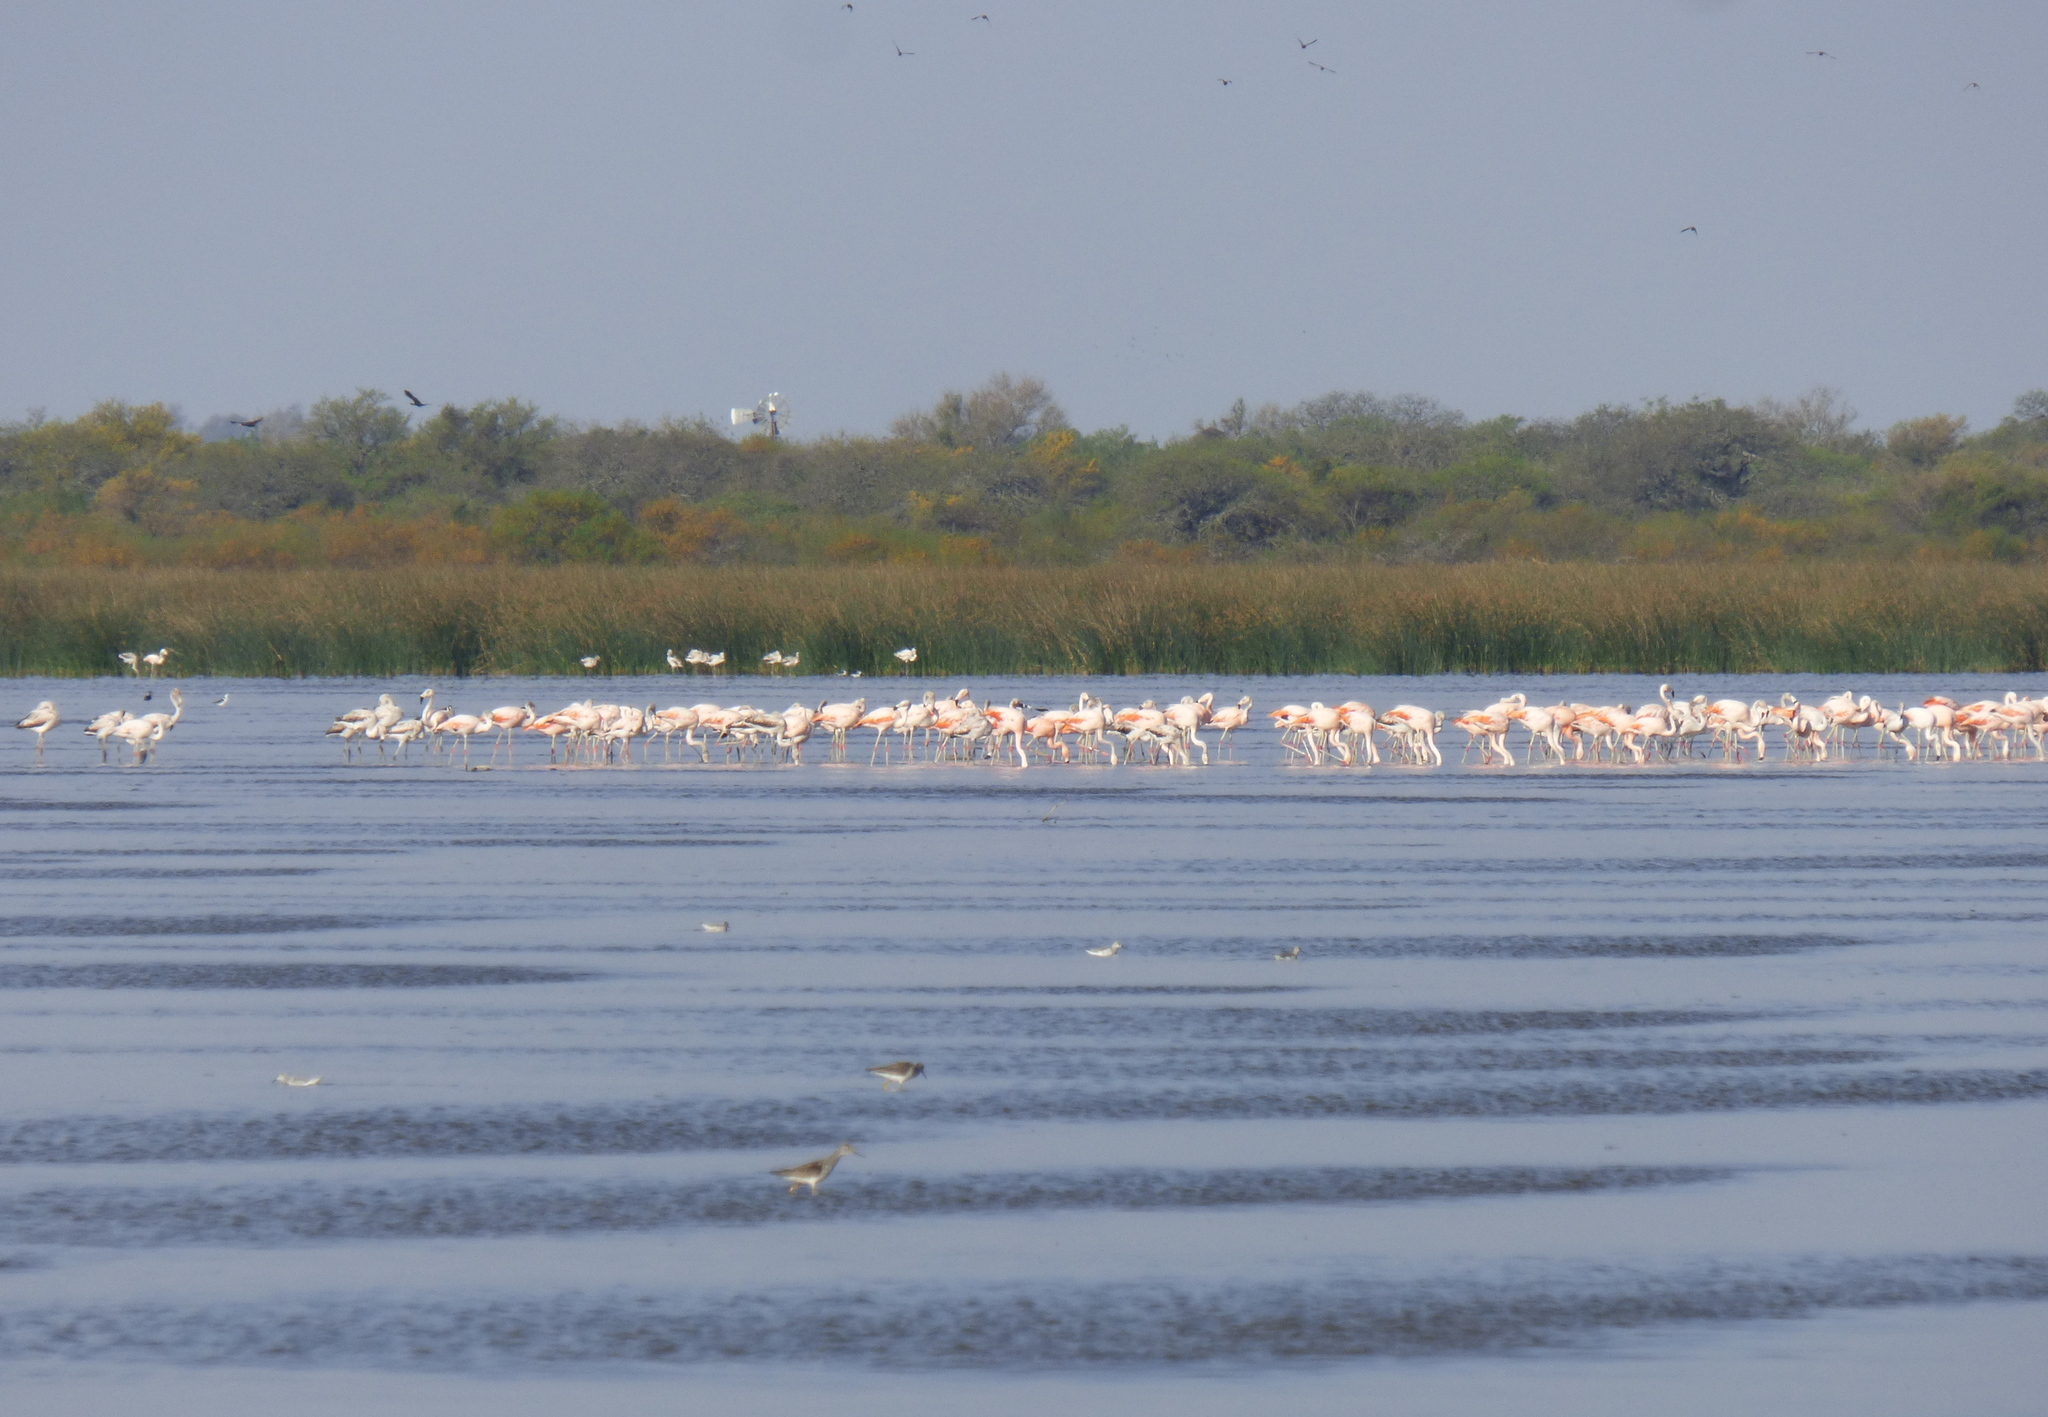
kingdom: Animalia
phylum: Chordata
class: Aves
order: Phoenicopteriformes
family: Phoenicopteridae
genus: Phoenicopterus
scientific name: Phoenicopterus chilensis
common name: Chilean flamingo
